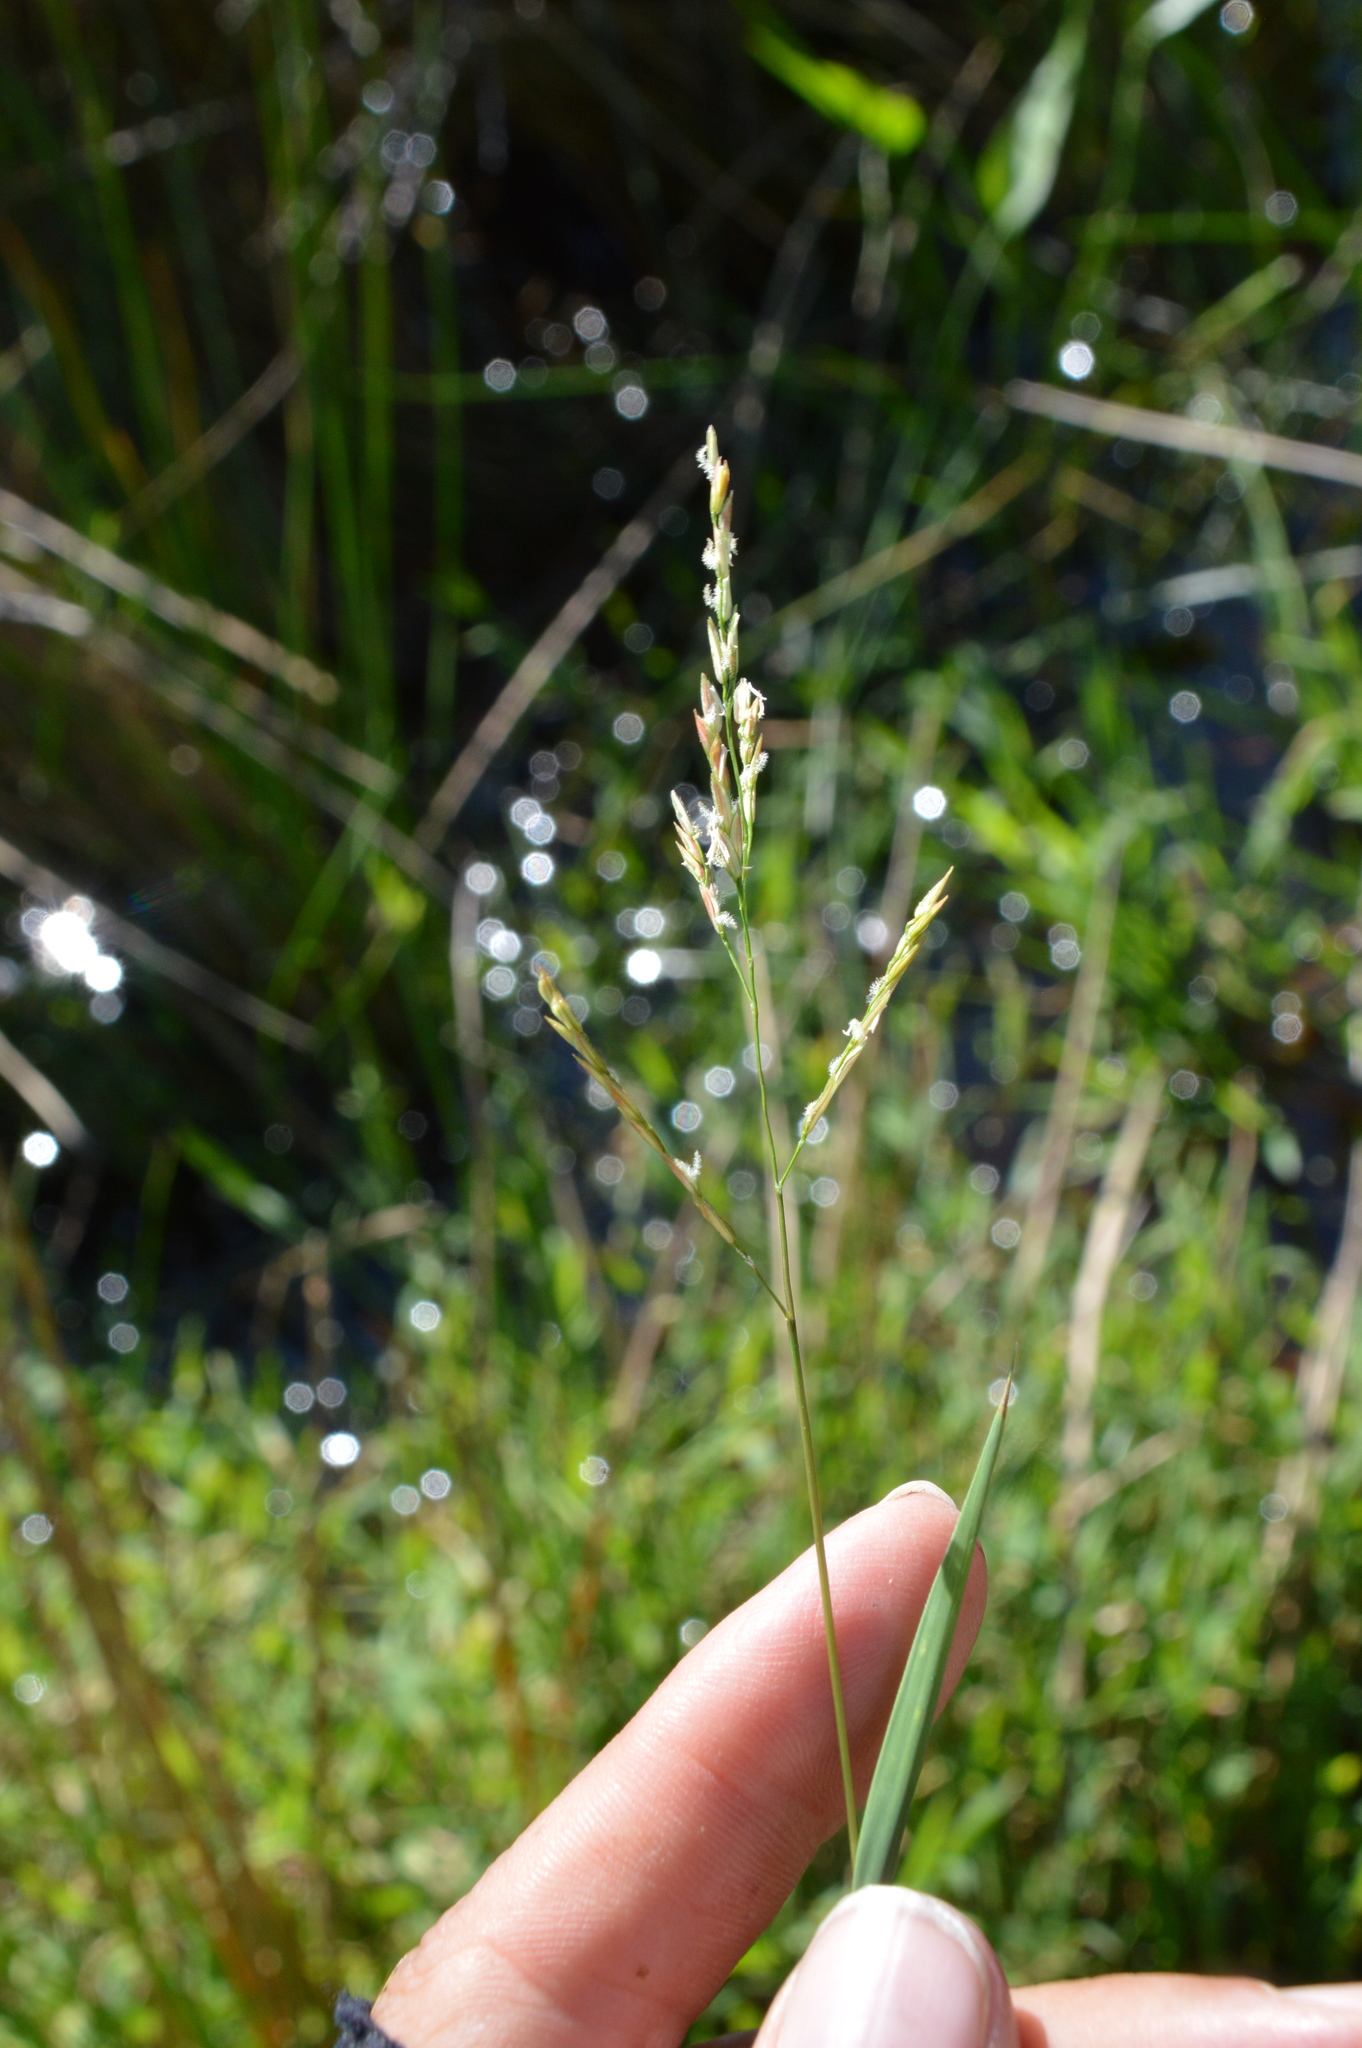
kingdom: Plantae
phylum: Tracheophyta
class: Liliopsida
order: Poales
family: Poaceae
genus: Leersia
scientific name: Leersia hexandra
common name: Southern cut grass
